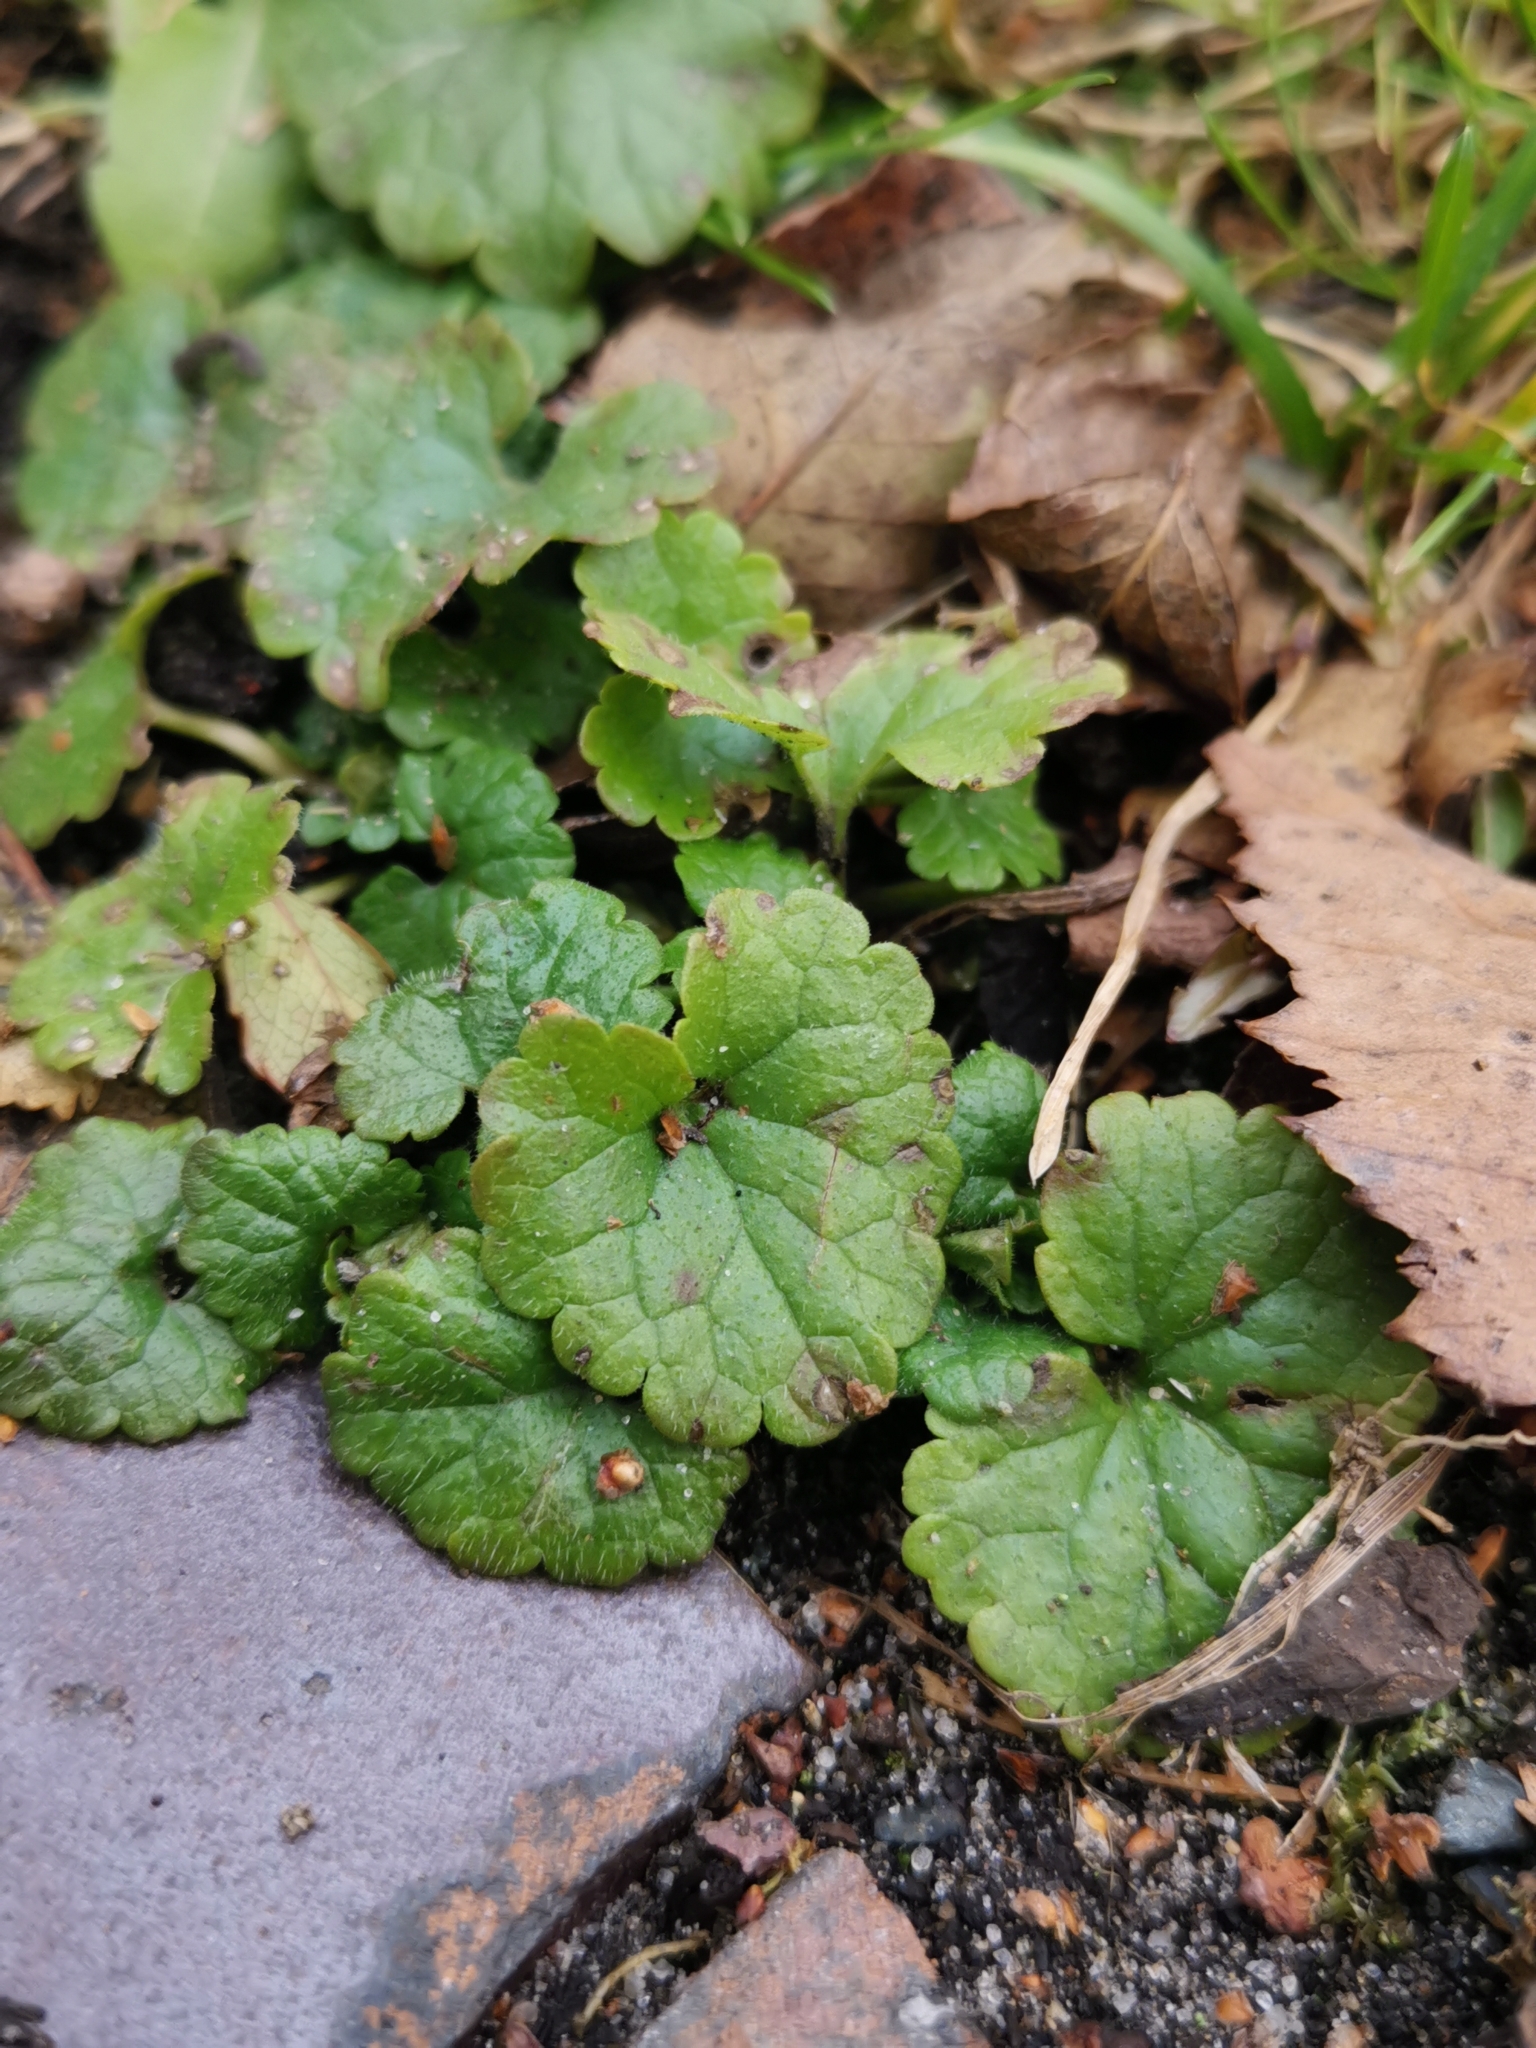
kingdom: Plantae
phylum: Tracheophyta
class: Magnoliopsida
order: Lamiales
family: Lamiaceae
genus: Glechoma
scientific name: Glechoma hederacea
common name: Ground ivy
